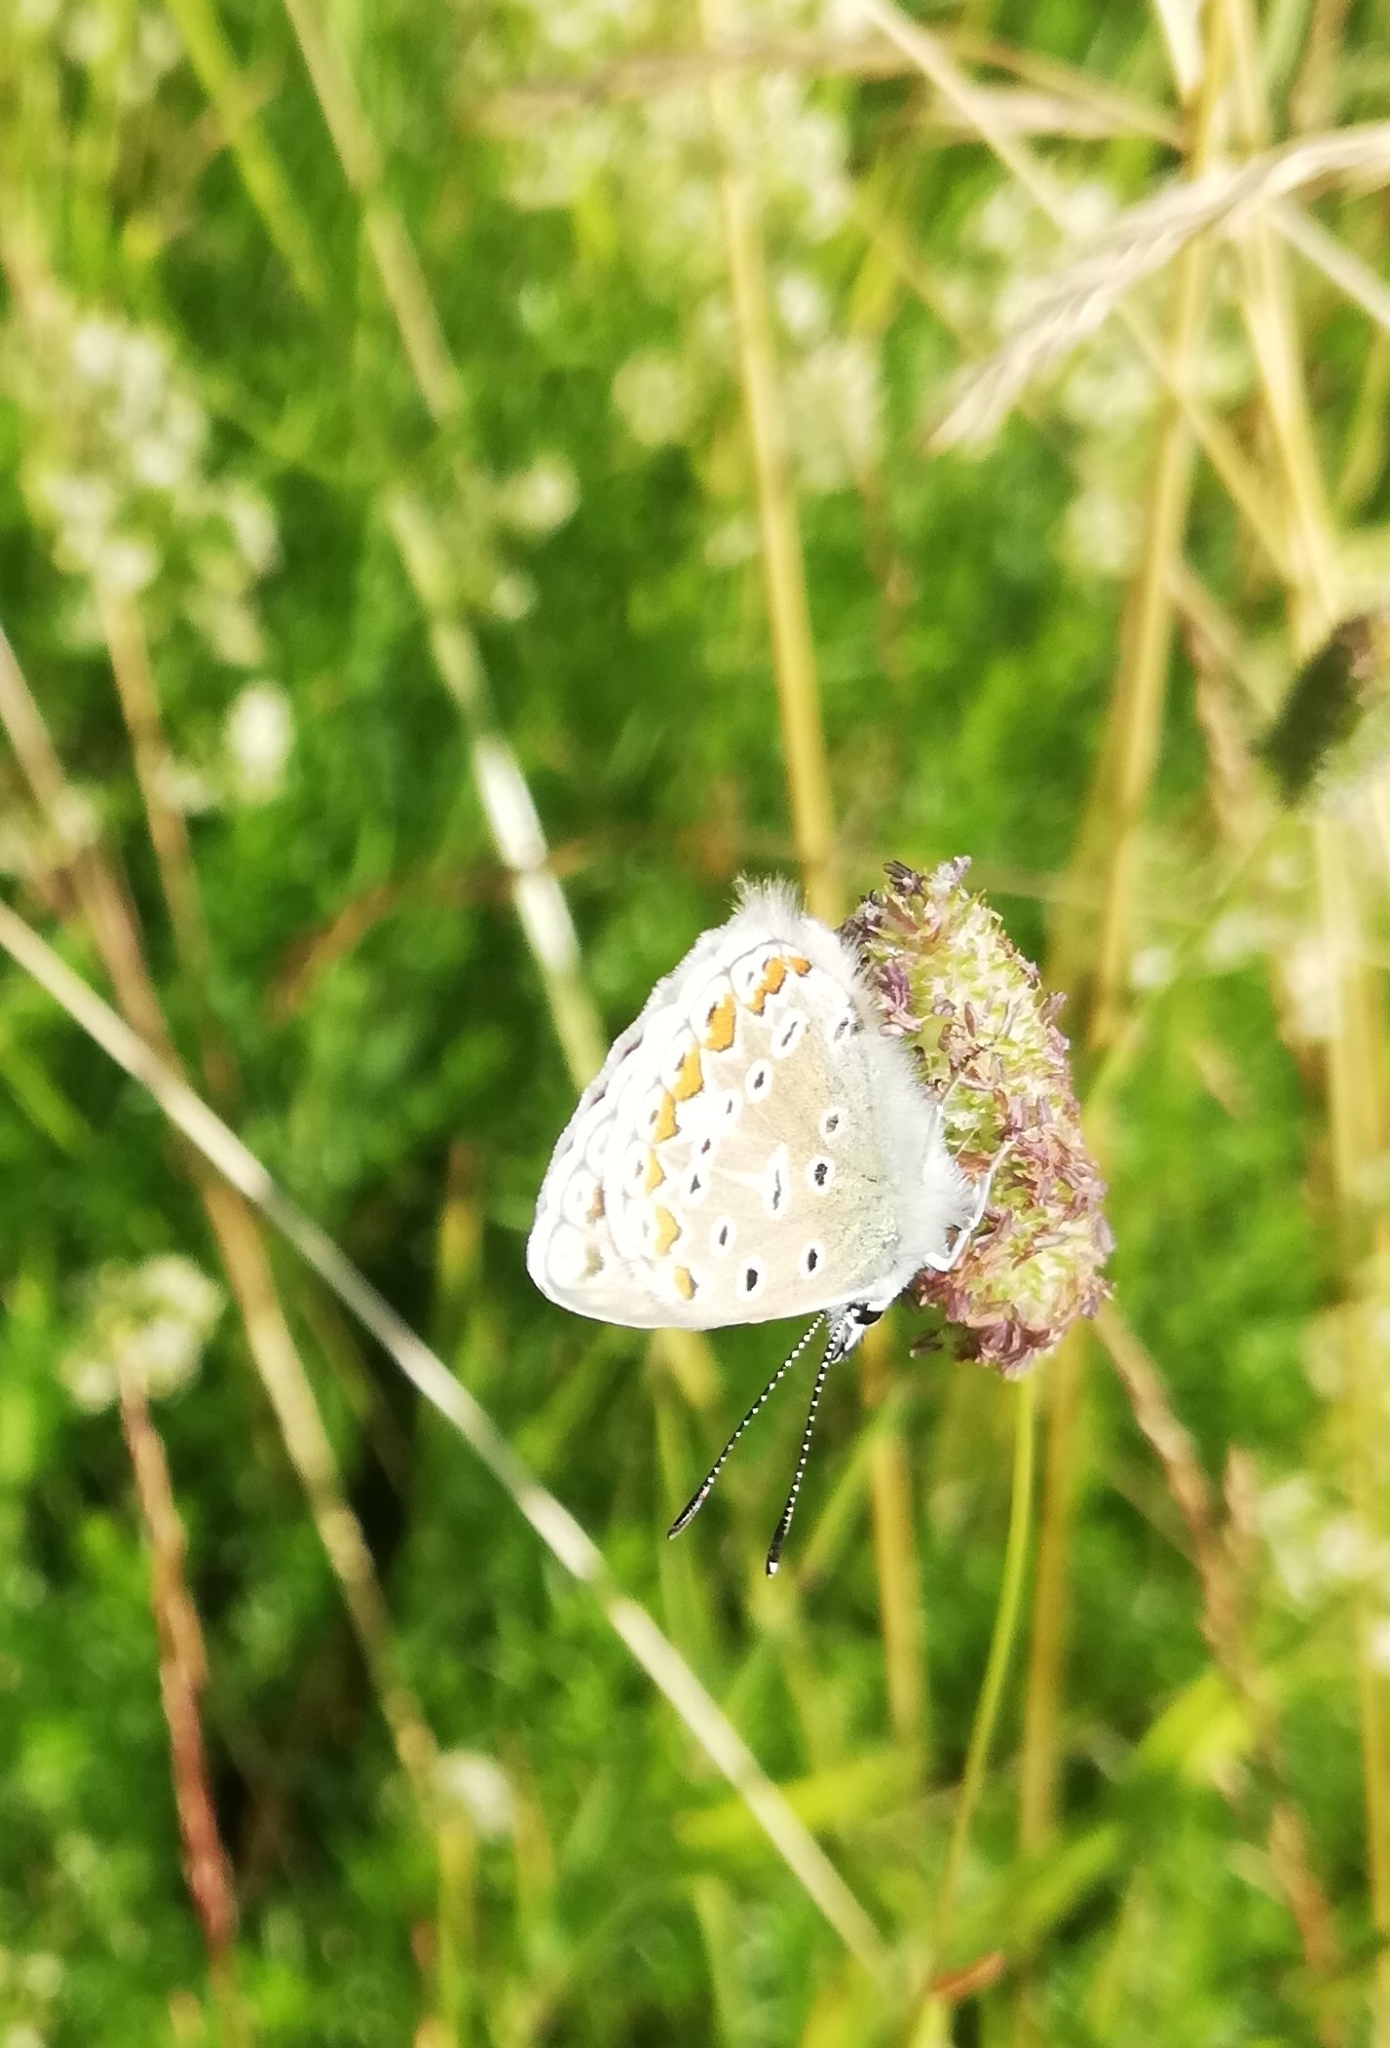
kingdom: Animalia
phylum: Arthropoda
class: Insecta
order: Lepidoptera
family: Lycaenidae
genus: Polyommatus
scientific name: Polyommatus icarus
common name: Common blue
